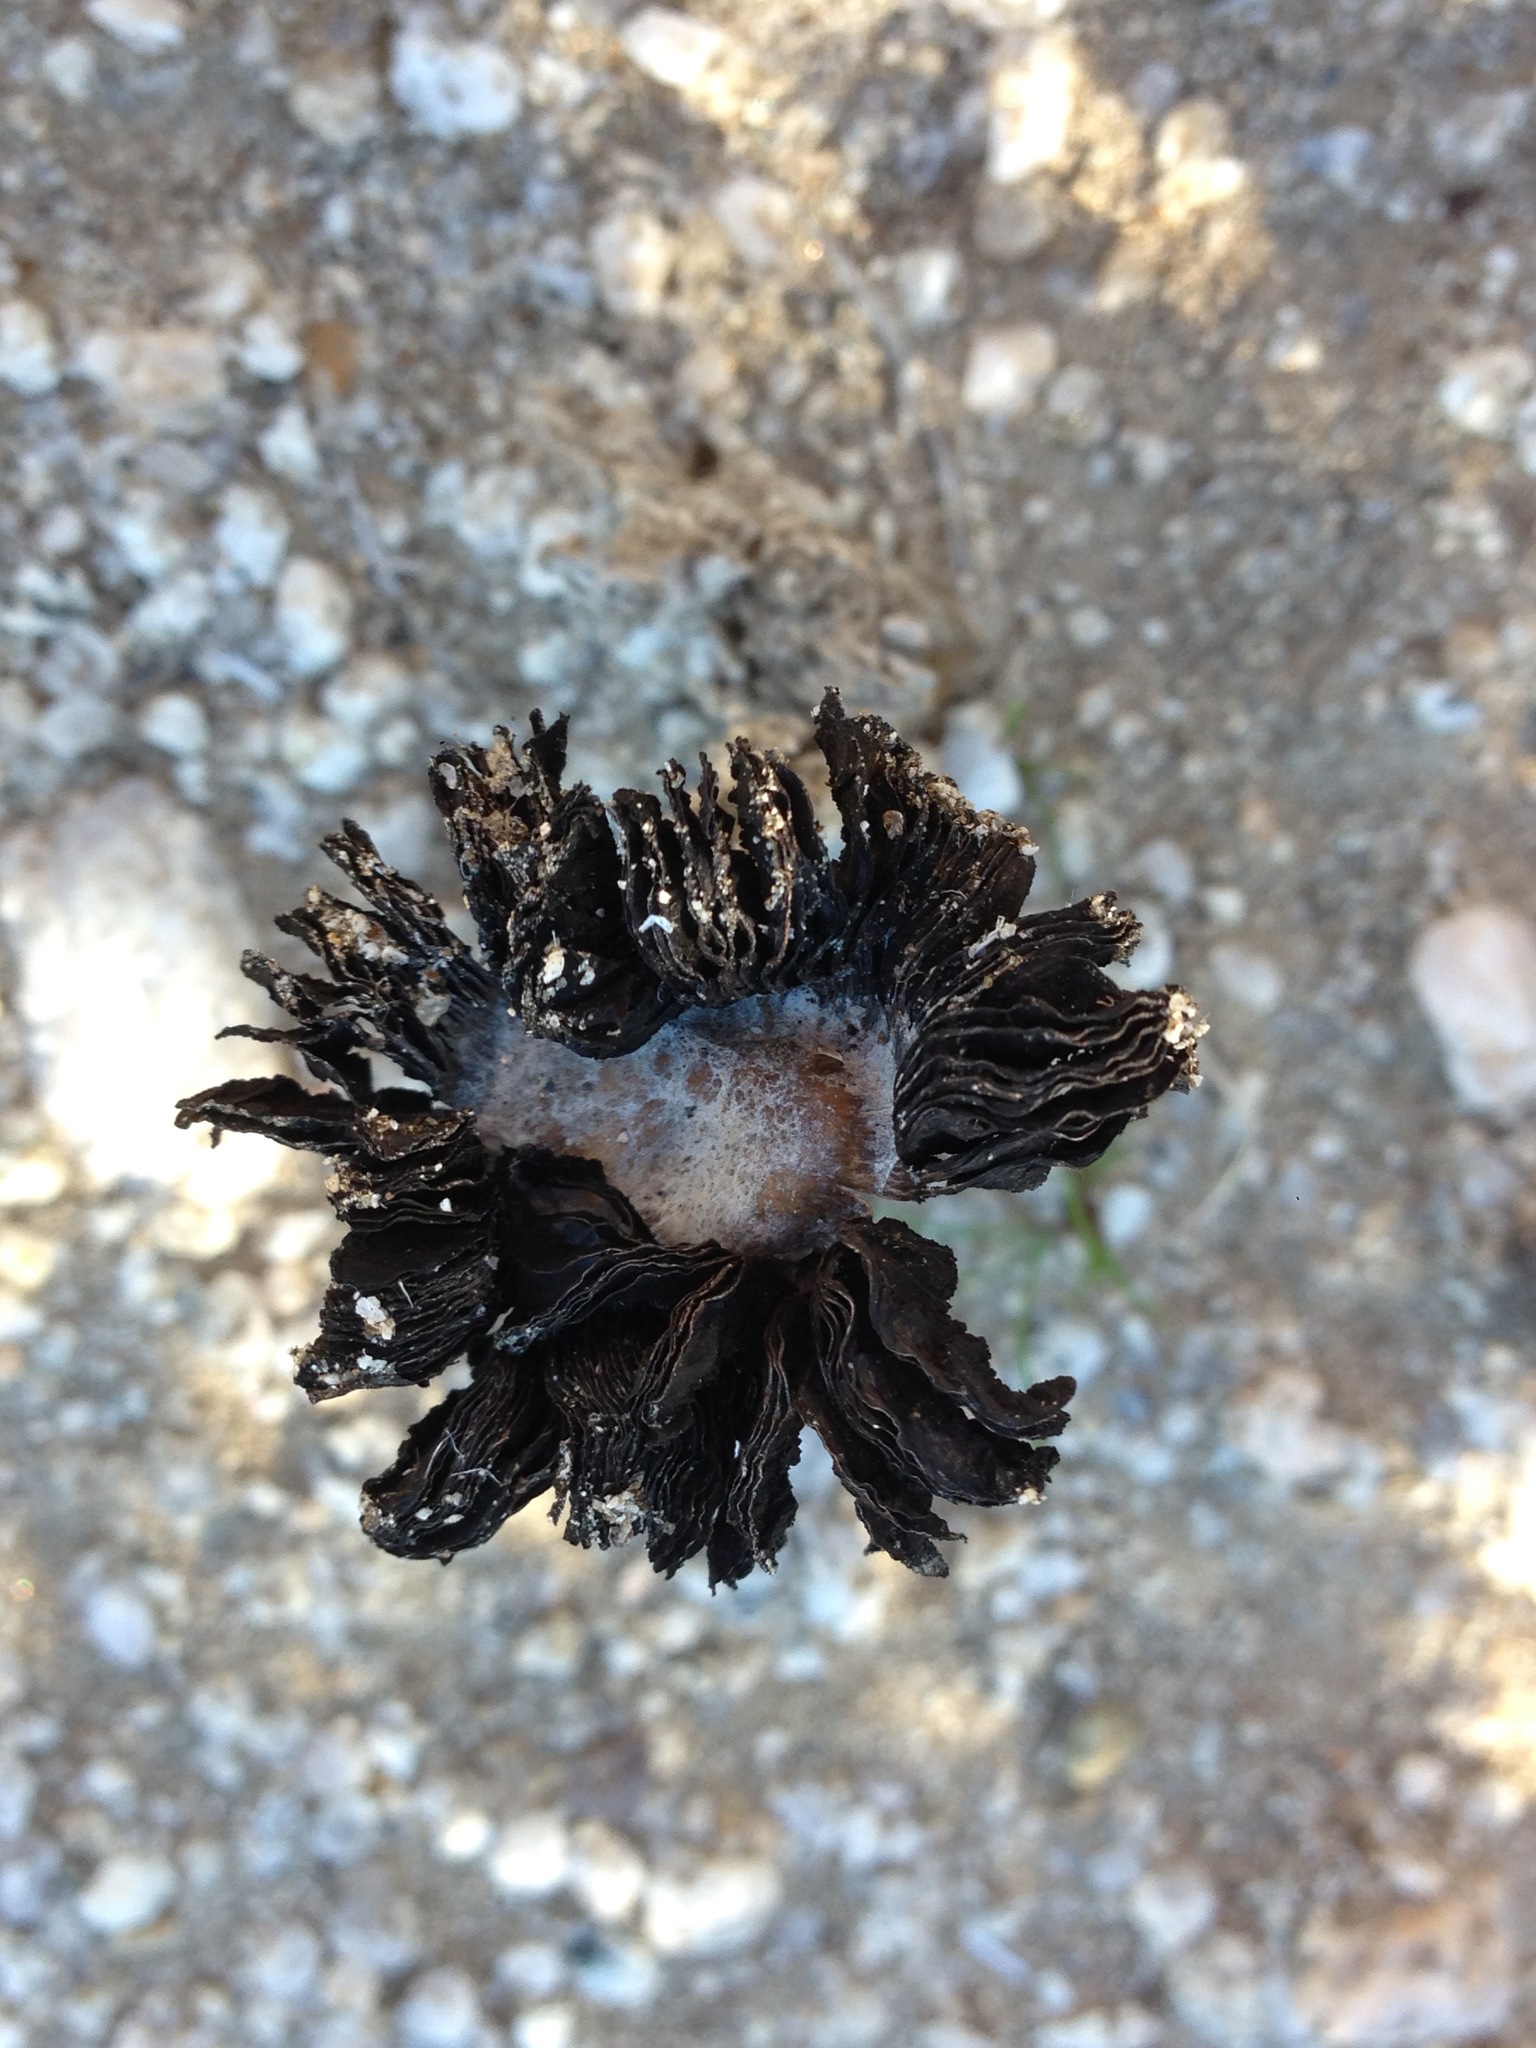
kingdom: Fungi
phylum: Basidiomycota
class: Agaricomycetes
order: Agaricales
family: Agaricaceae
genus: Montagnea
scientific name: Montagnea arenaria
